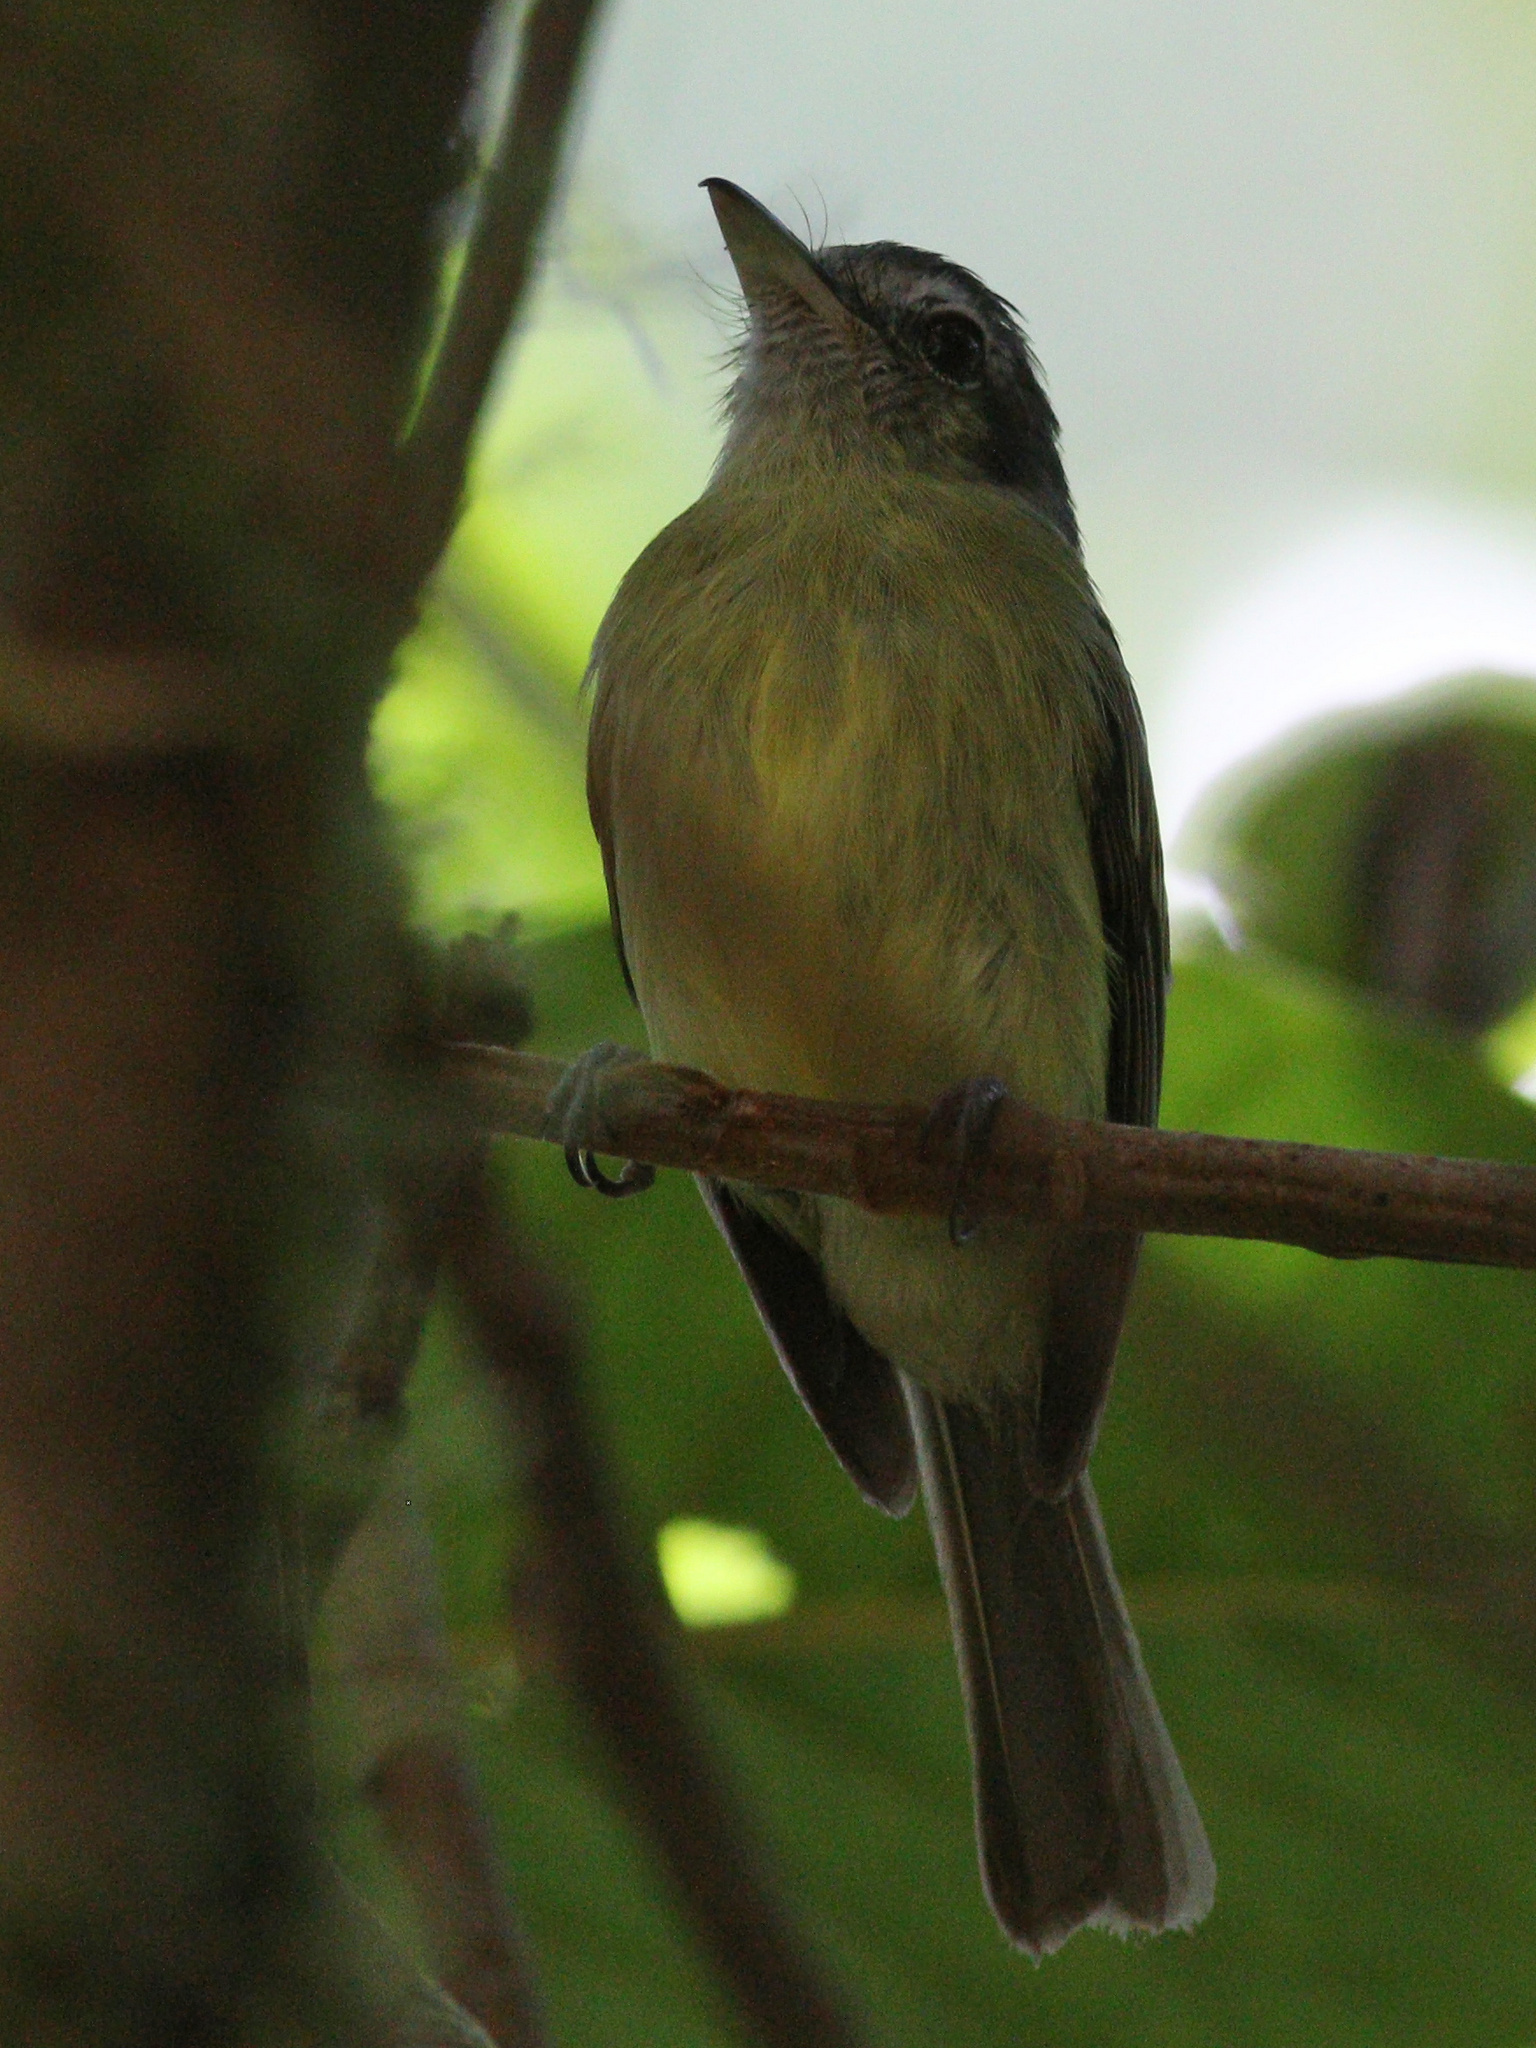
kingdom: Animalia
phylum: Chordata
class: Aves
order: Passeriformes
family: Tyrannidae
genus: Tolmomyias
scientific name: Tolmomyias sulphurescens
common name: Yellow-olive flycatcher
